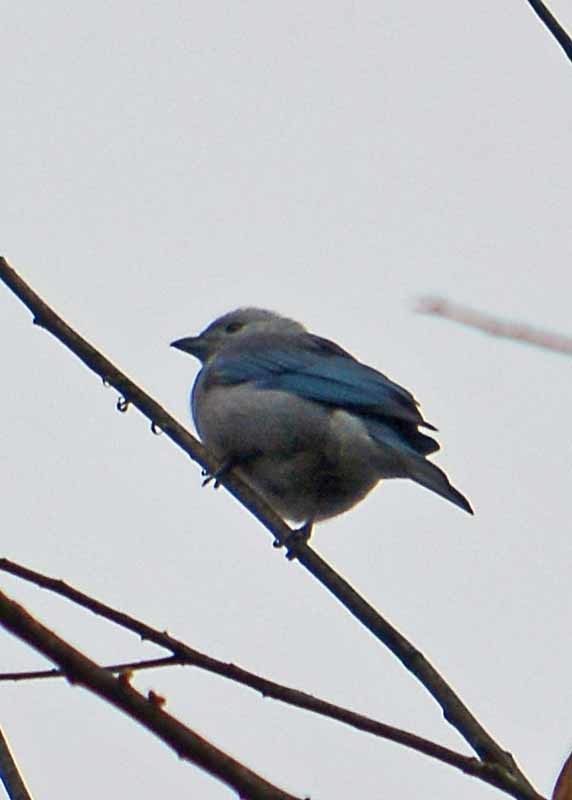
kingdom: Animalia
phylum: Chordata
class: Aves
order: Passeriformes
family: Thraupidae
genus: Thraupis
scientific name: Thraupis episcopus
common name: Blue-grey tanager
